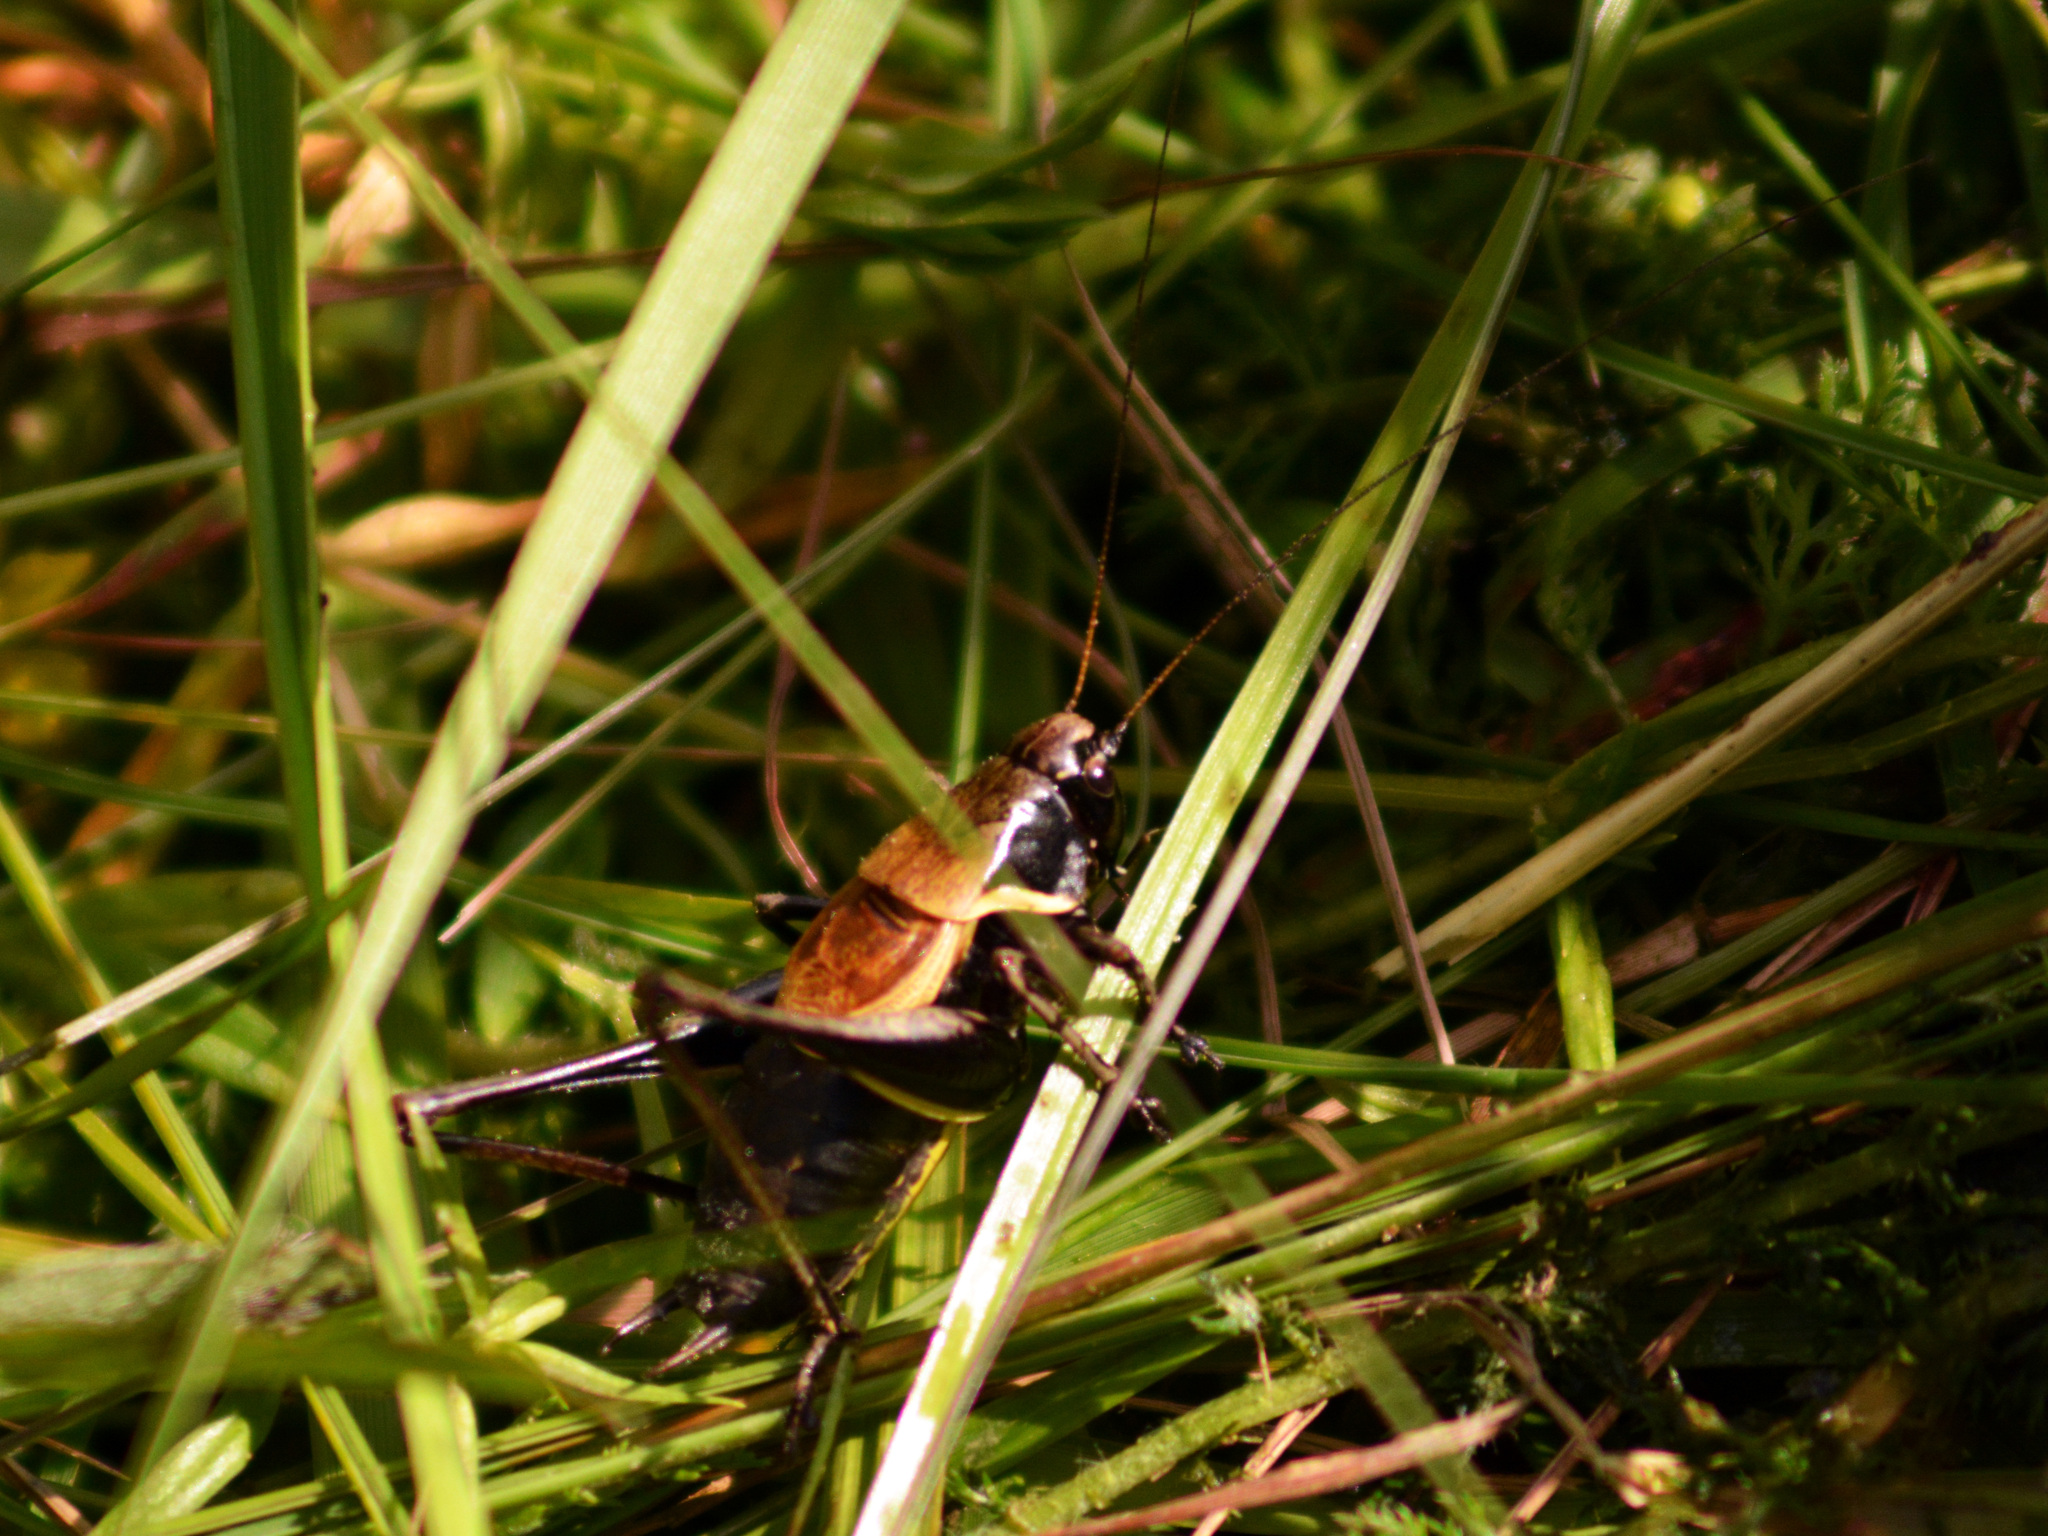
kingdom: Animalia
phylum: Arthropoda
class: Insecta
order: Orthoptera
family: Tettigoniidae
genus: Pholidoptera
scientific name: Pholidoptera aptera
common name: Alpine dark bush-cricket
